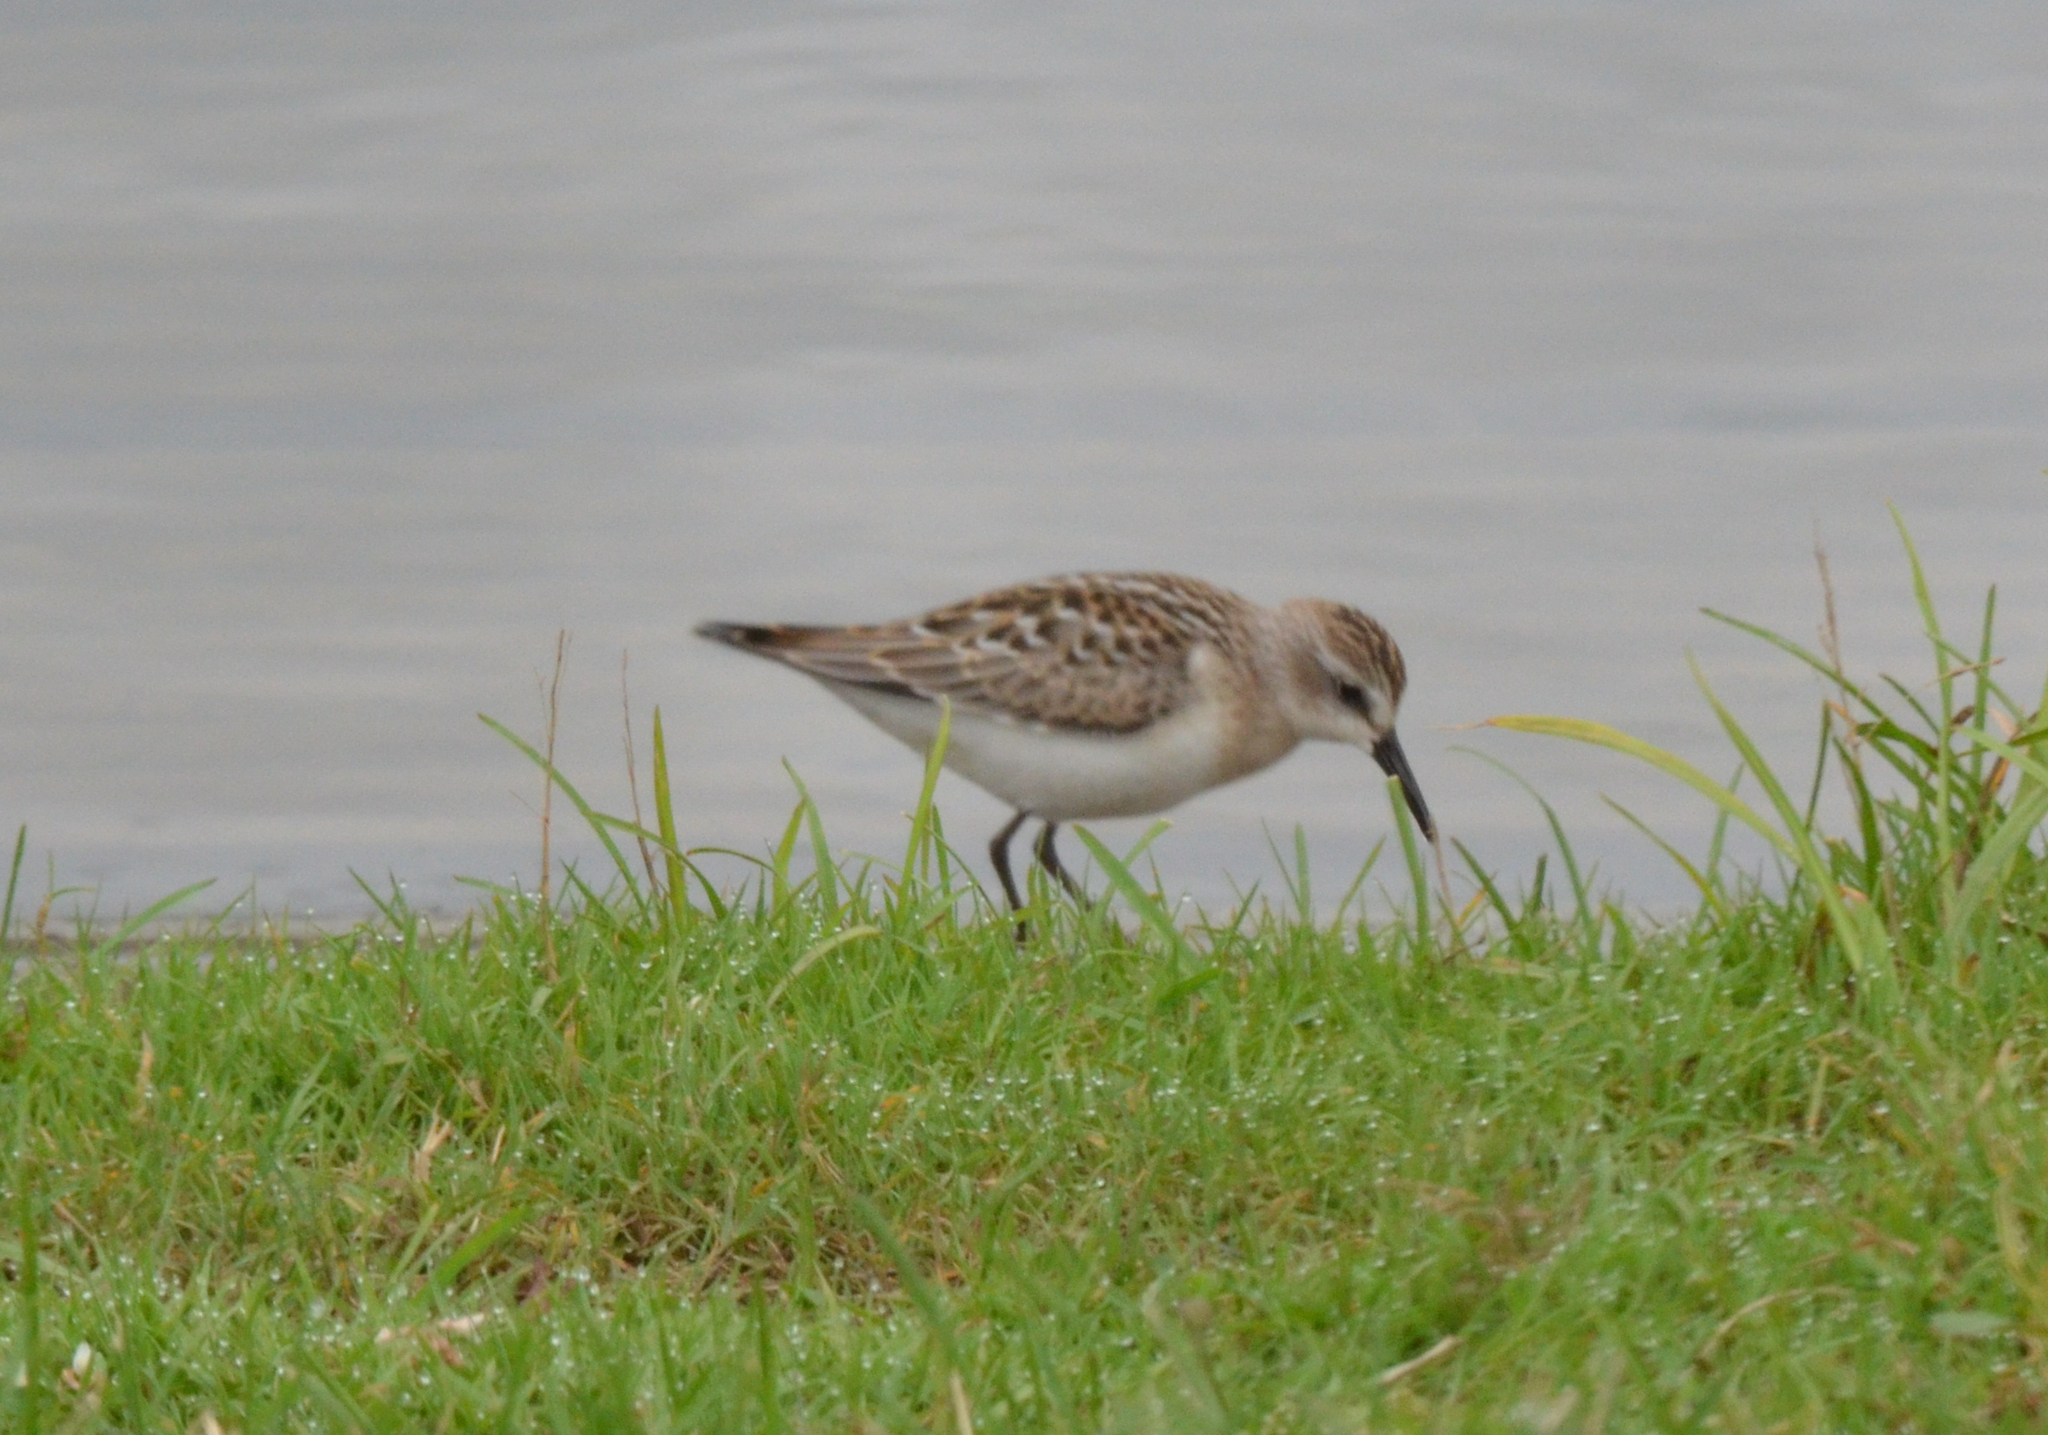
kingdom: Animalia
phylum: Chordata
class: Aves
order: Charadriiformes
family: Scolopacidae
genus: Calidris
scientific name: Calidris pusilla
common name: Semipalmated sandpiper
